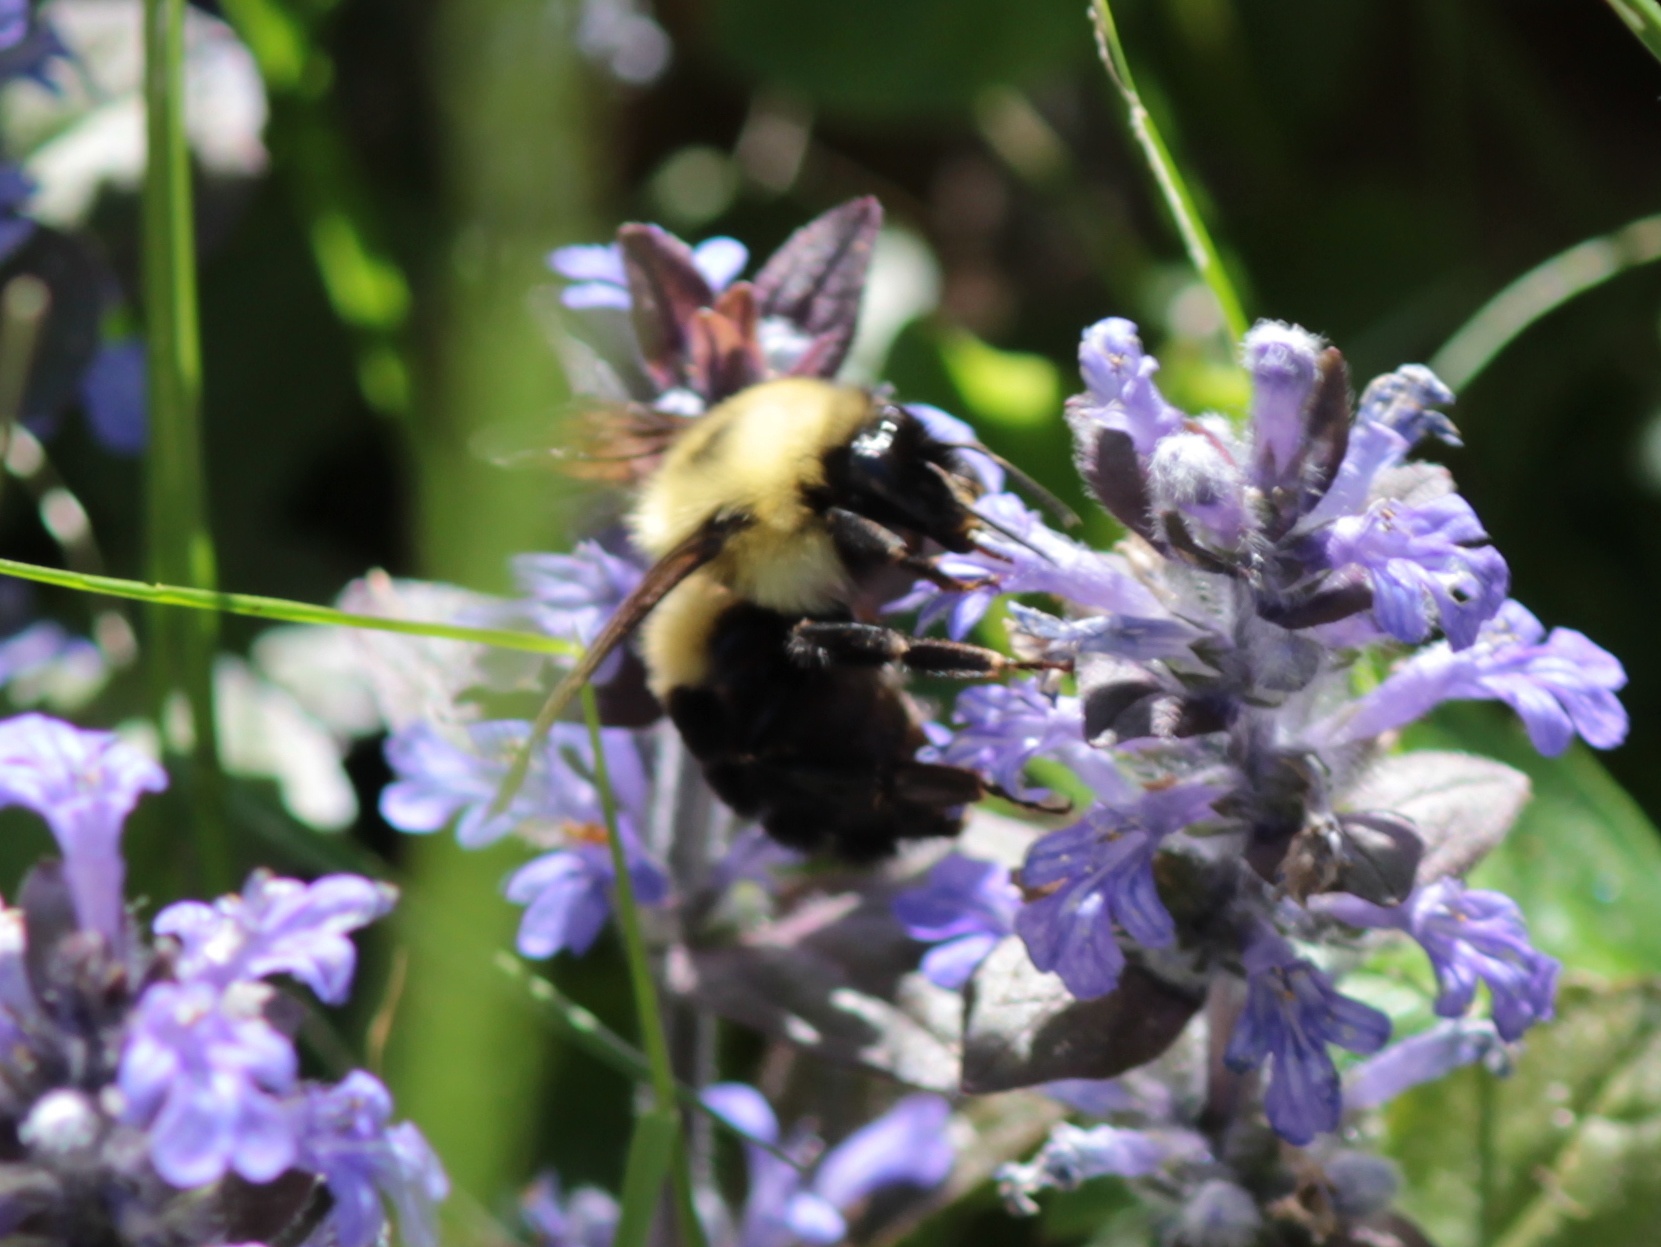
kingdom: Animalia
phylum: Arthropoda
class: Insecta
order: Hymenoptera
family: Apidae
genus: Bombus
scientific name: Bombus bimaculatus
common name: Two-spotted bumble bee
